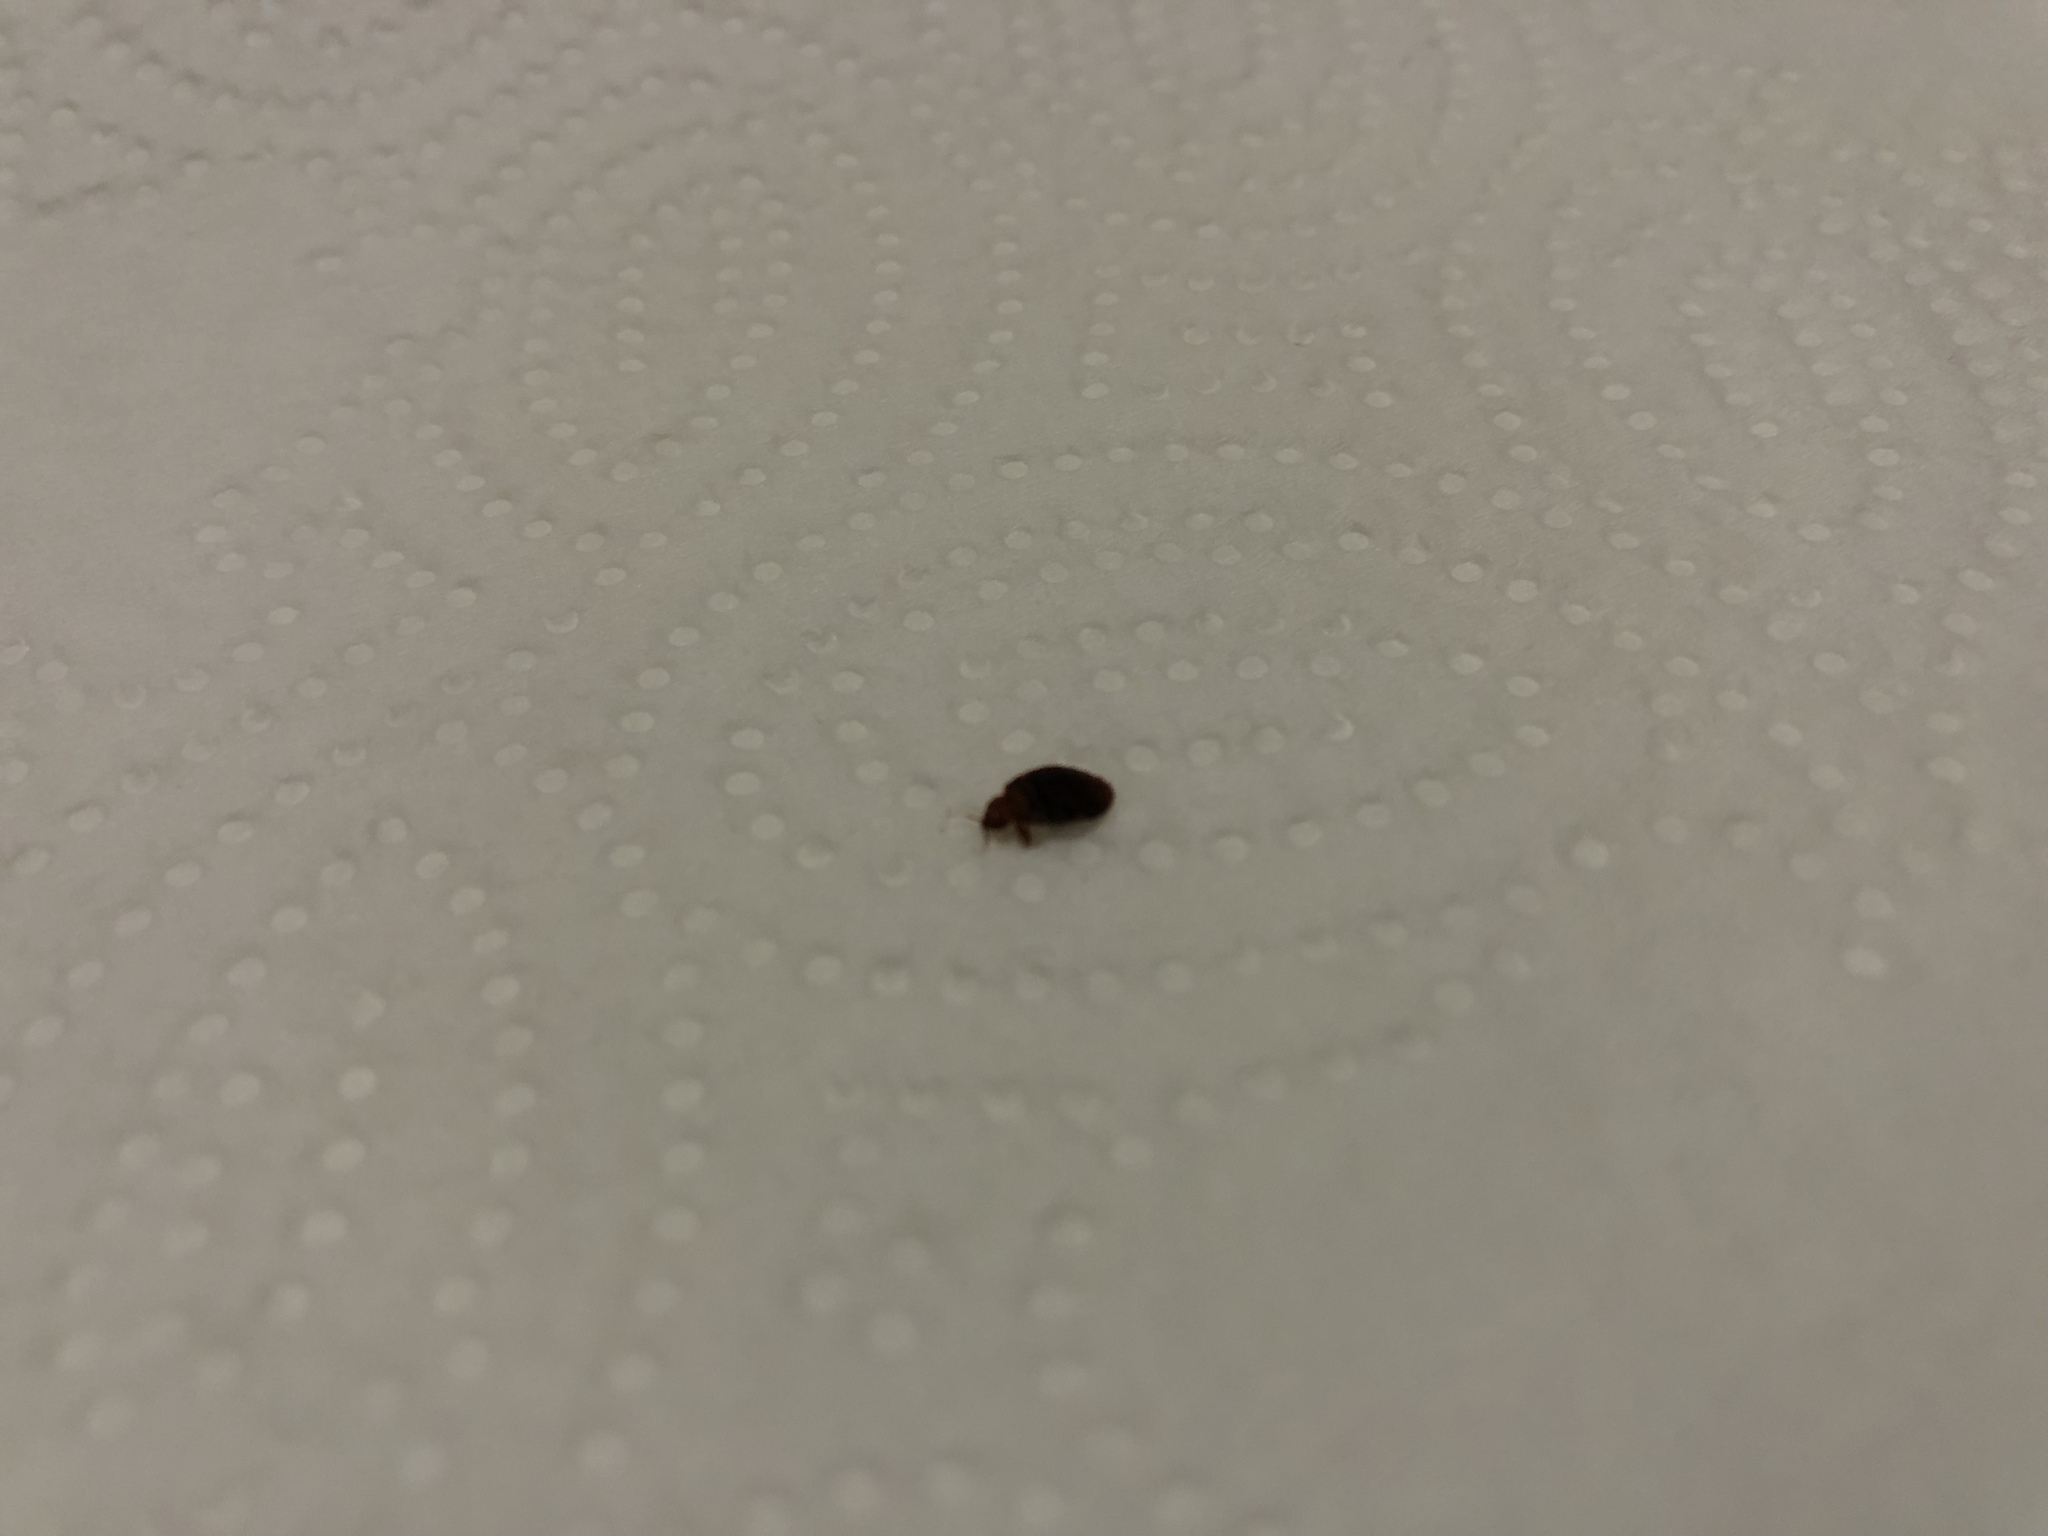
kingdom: Animalia
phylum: Arthropoda
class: Insecta
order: Hemiptera
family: Cimicidae
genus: Cimex
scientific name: Cimex lectularius
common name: Bed bug
